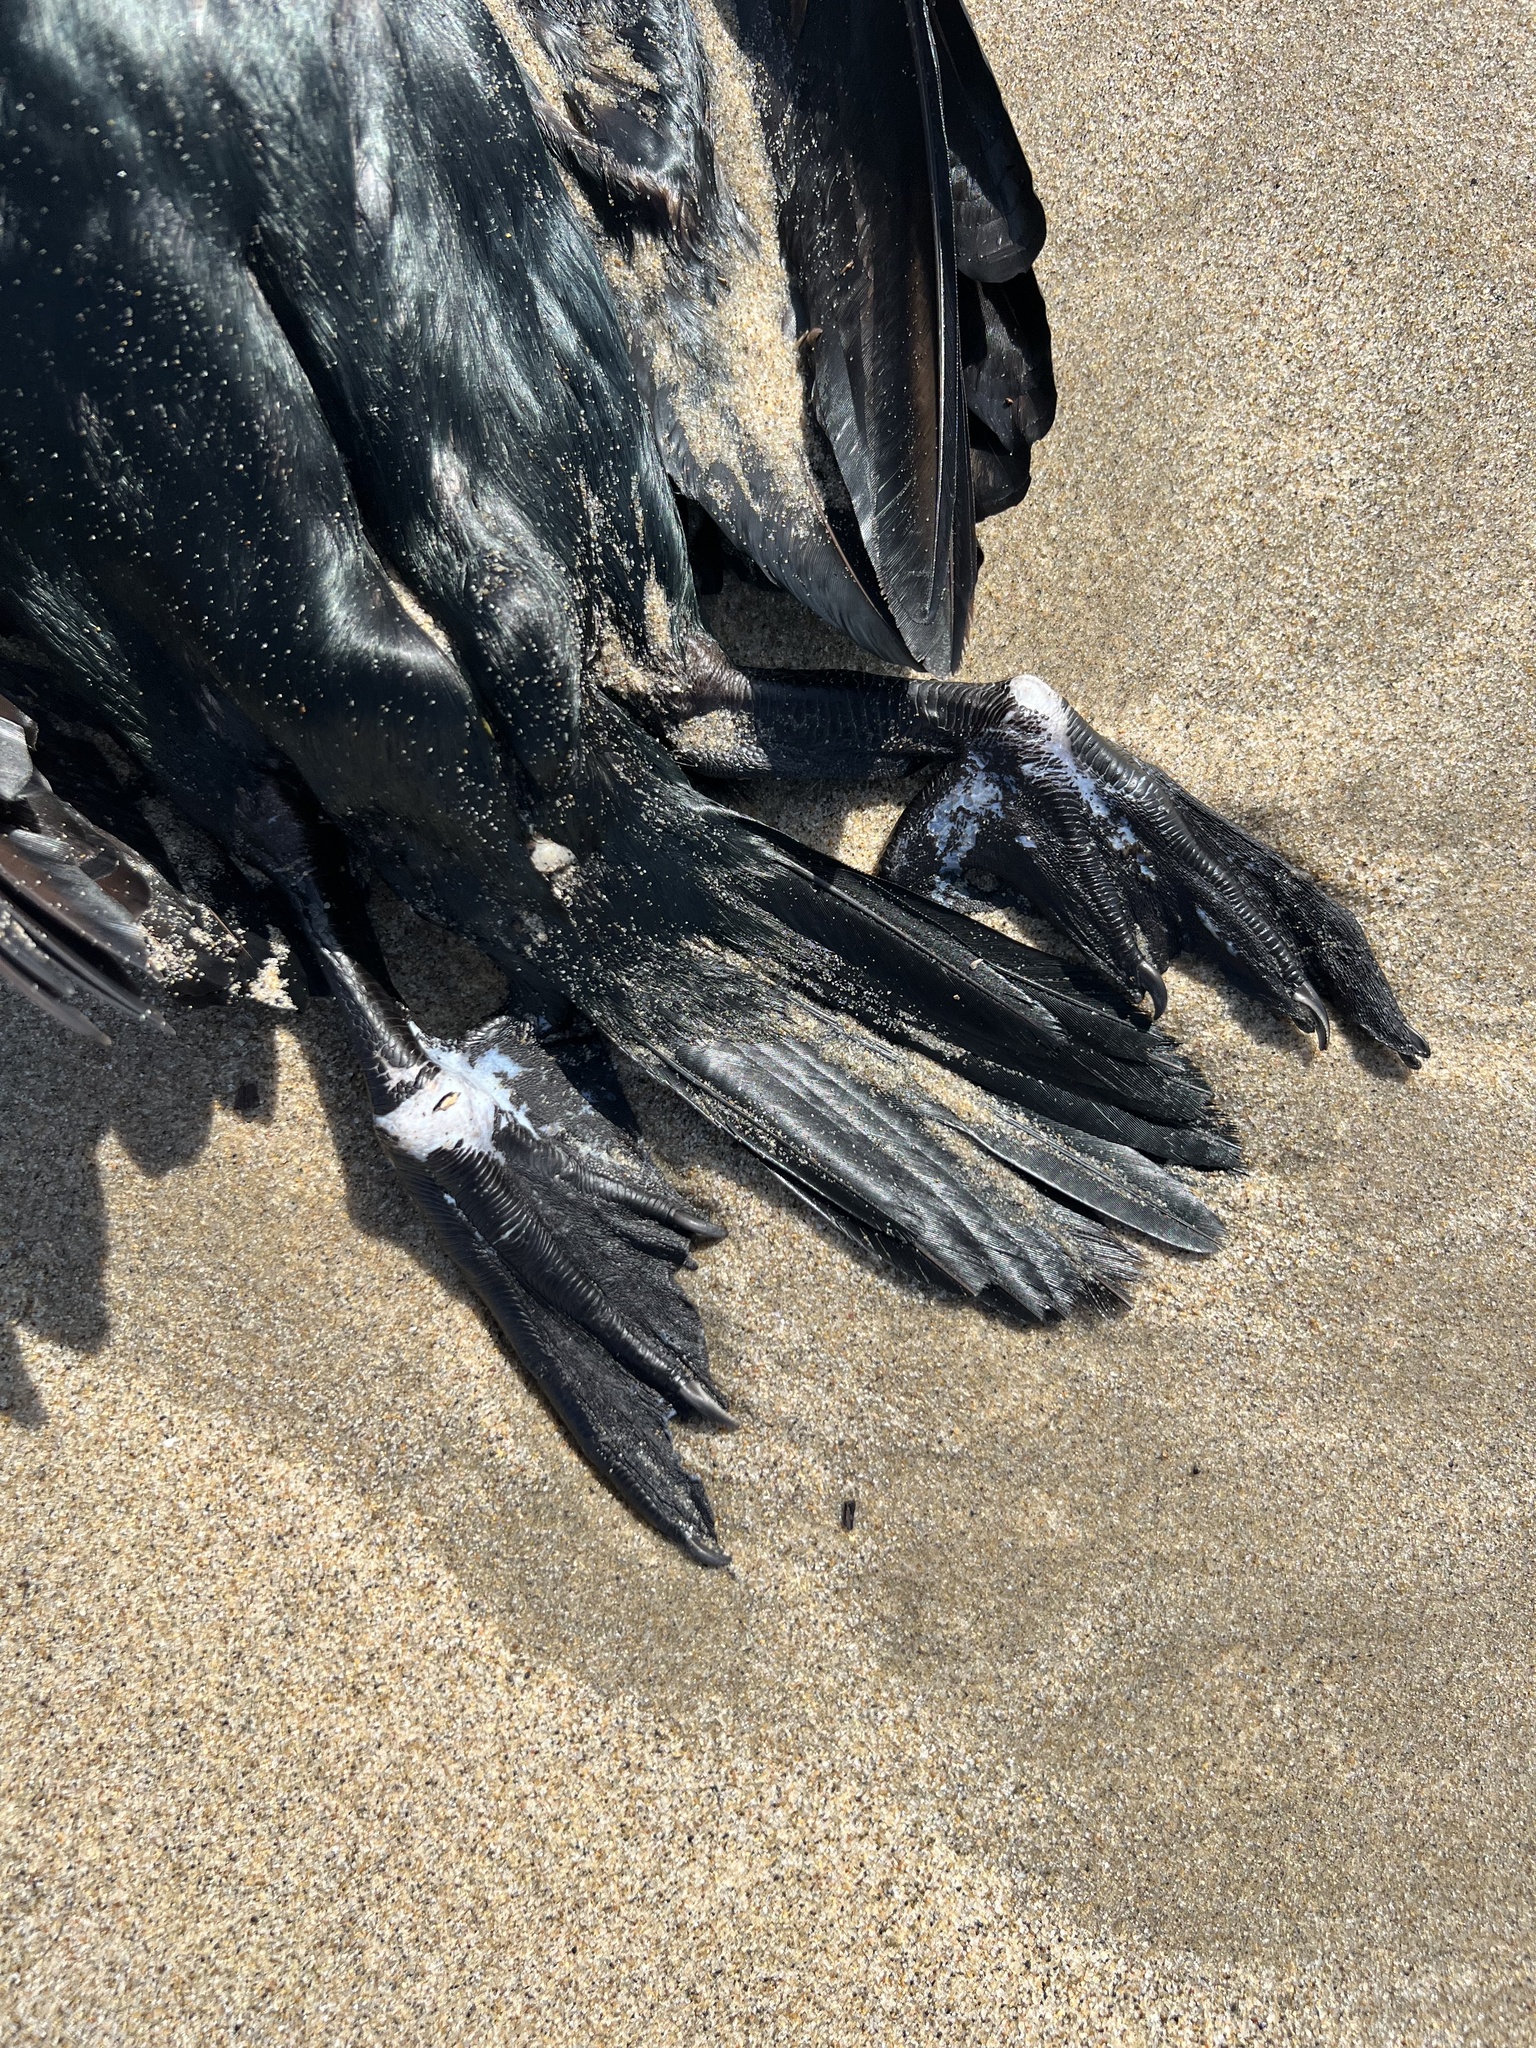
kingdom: Animalia
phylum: Chordata
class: Aves
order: Suliformes
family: Phalacrocoracidae
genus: Urile
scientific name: Urile penicillatus
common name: Brandt's cormorant
